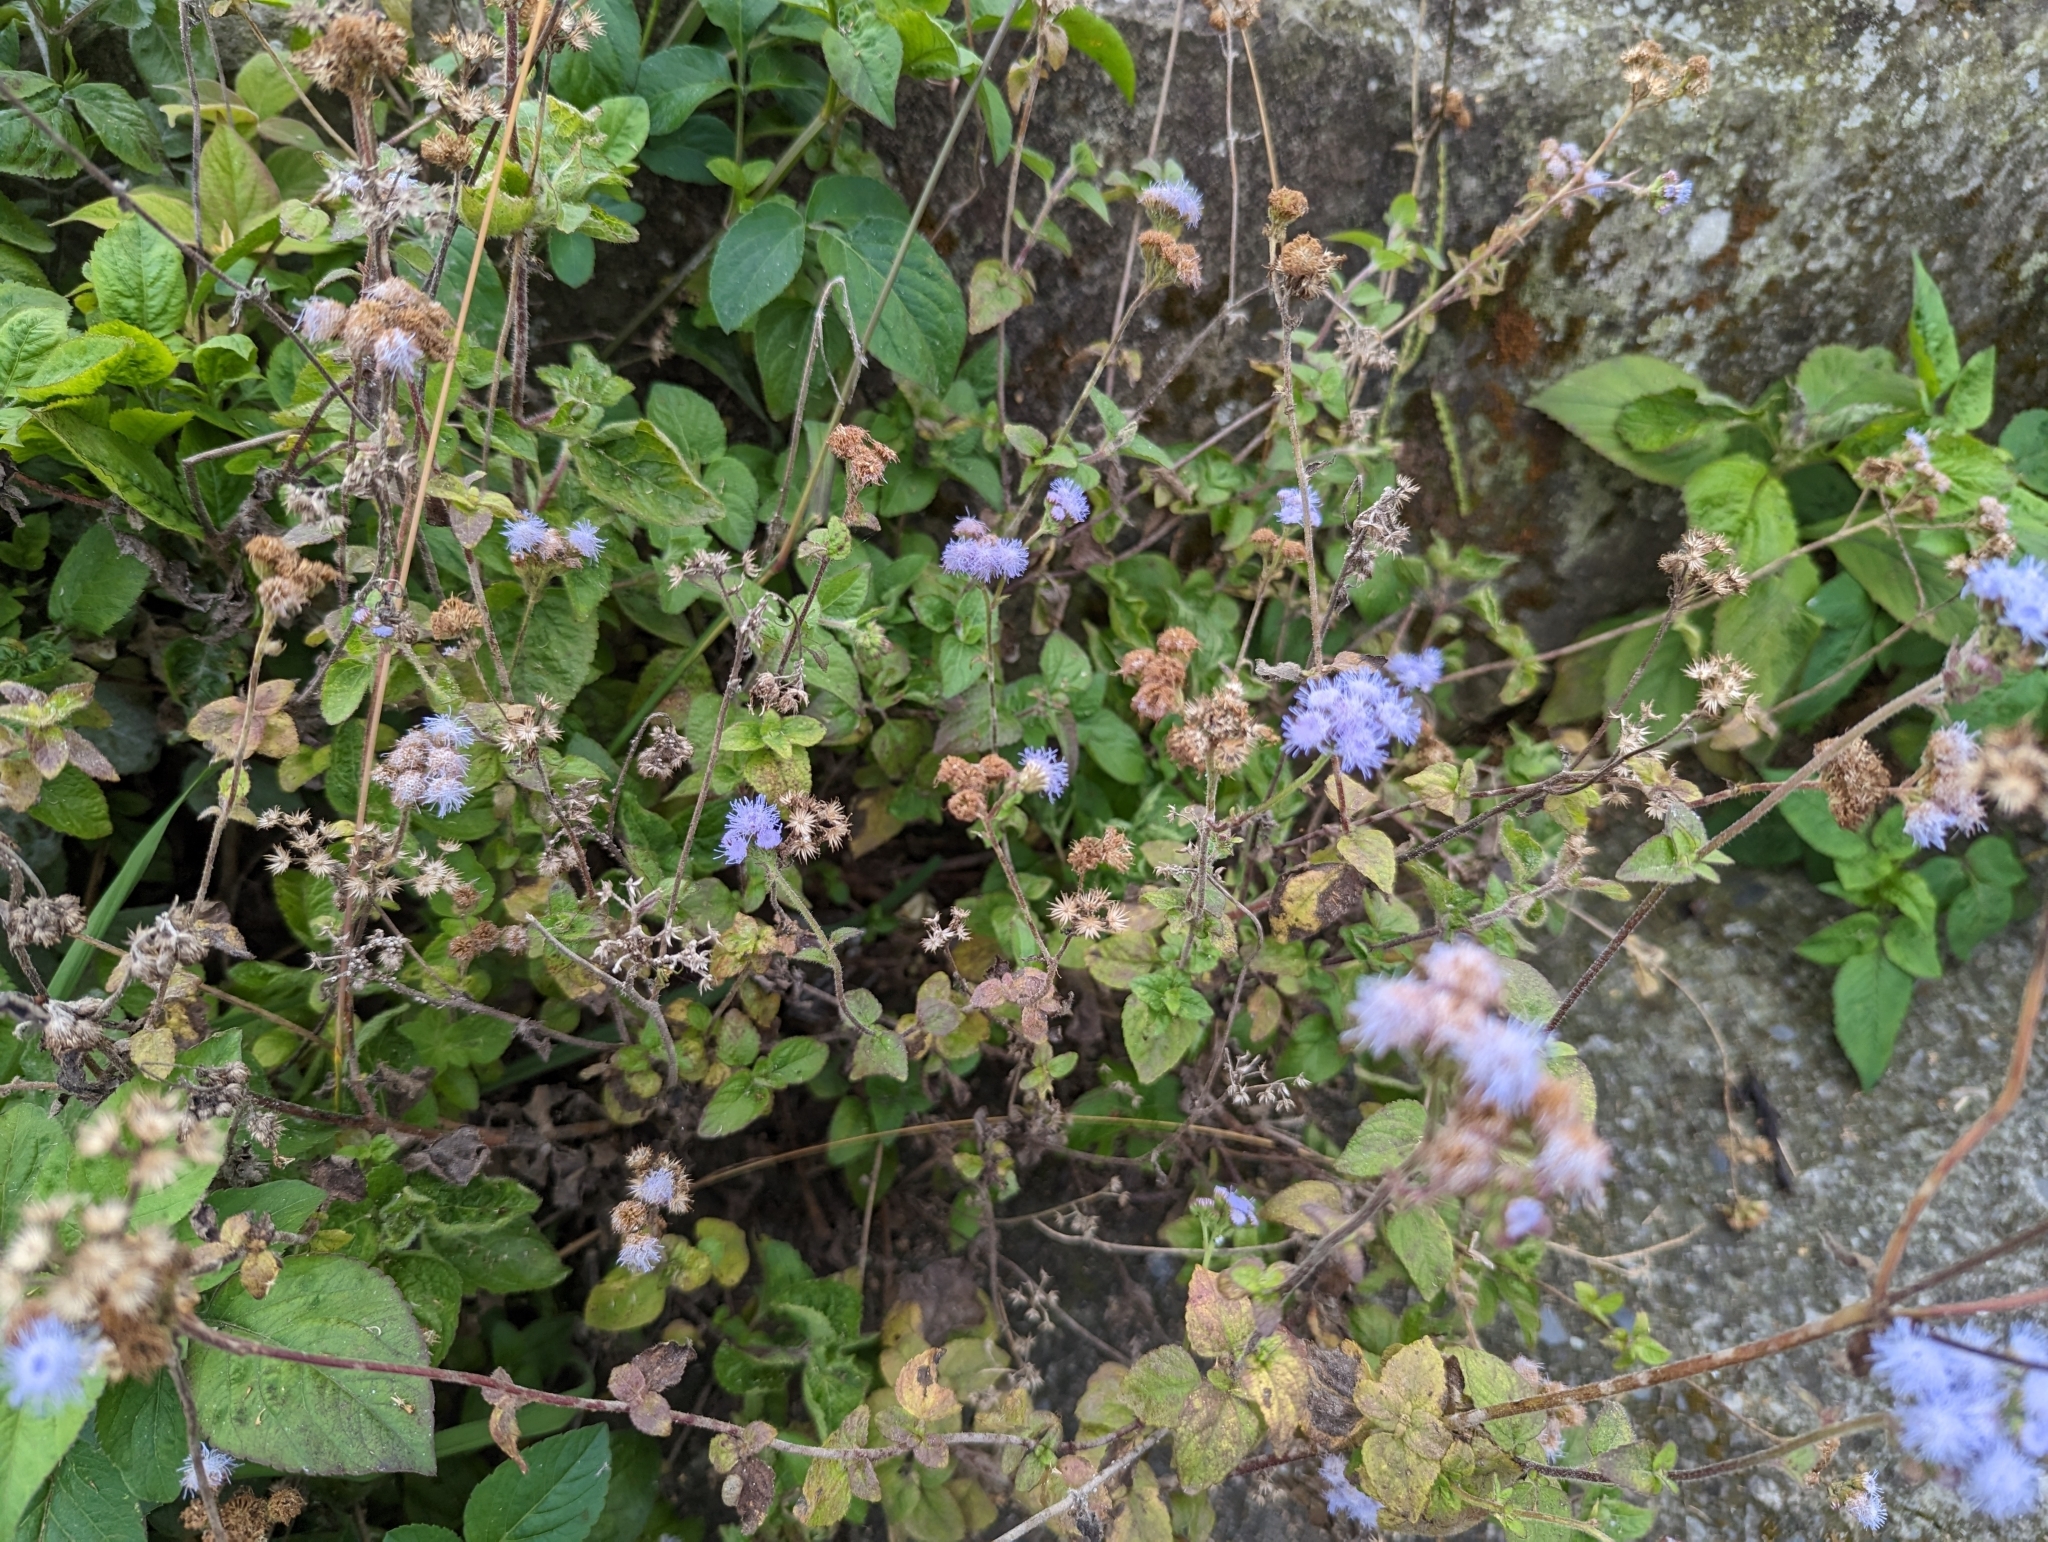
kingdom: Plantae
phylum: Tracheophyta
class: Magnoliopsida
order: Asterales
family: Asteraceae
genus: Ageratum
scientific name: Ageratum houstonianum
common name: Bluemink
